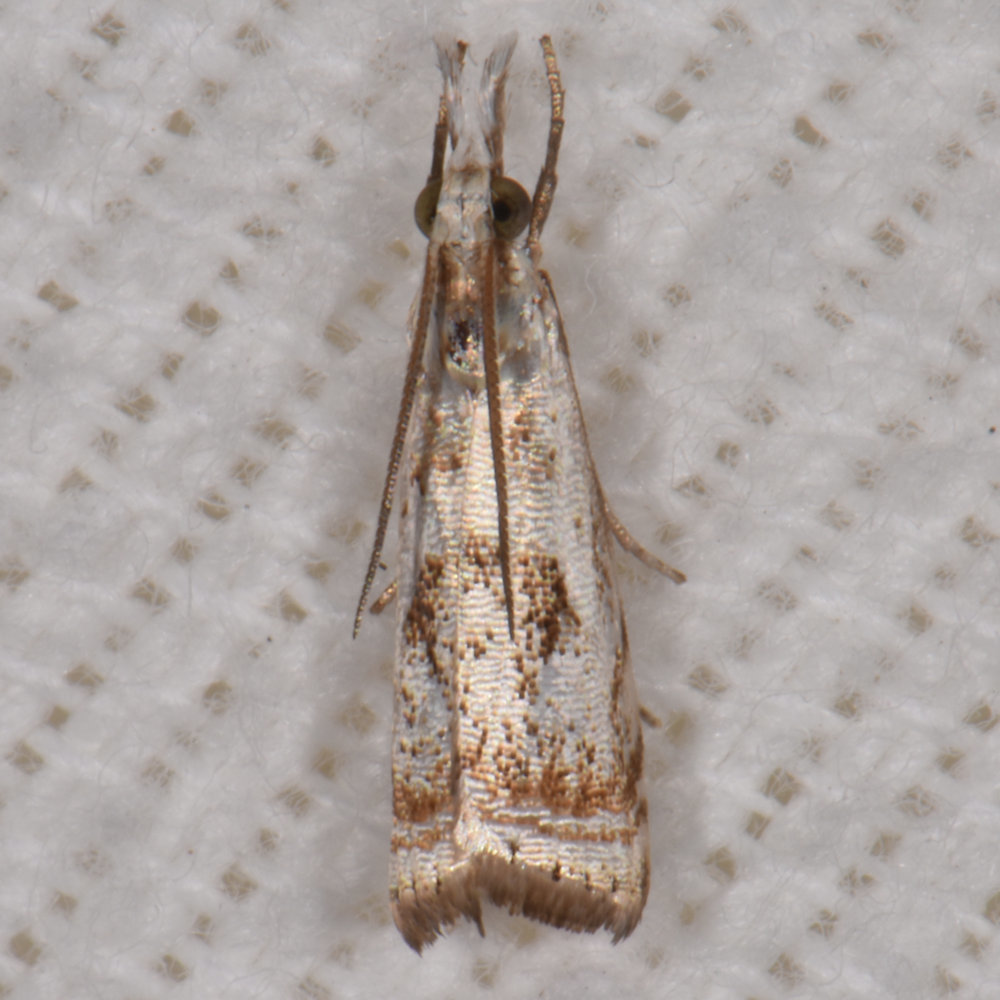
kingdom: Animalia
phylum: Arthropoda
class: Insecta
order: Lepidoptera
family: Crambidae
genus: Microcrambus
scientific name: Microcrambus elegans
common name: Elegant grass-veneer
